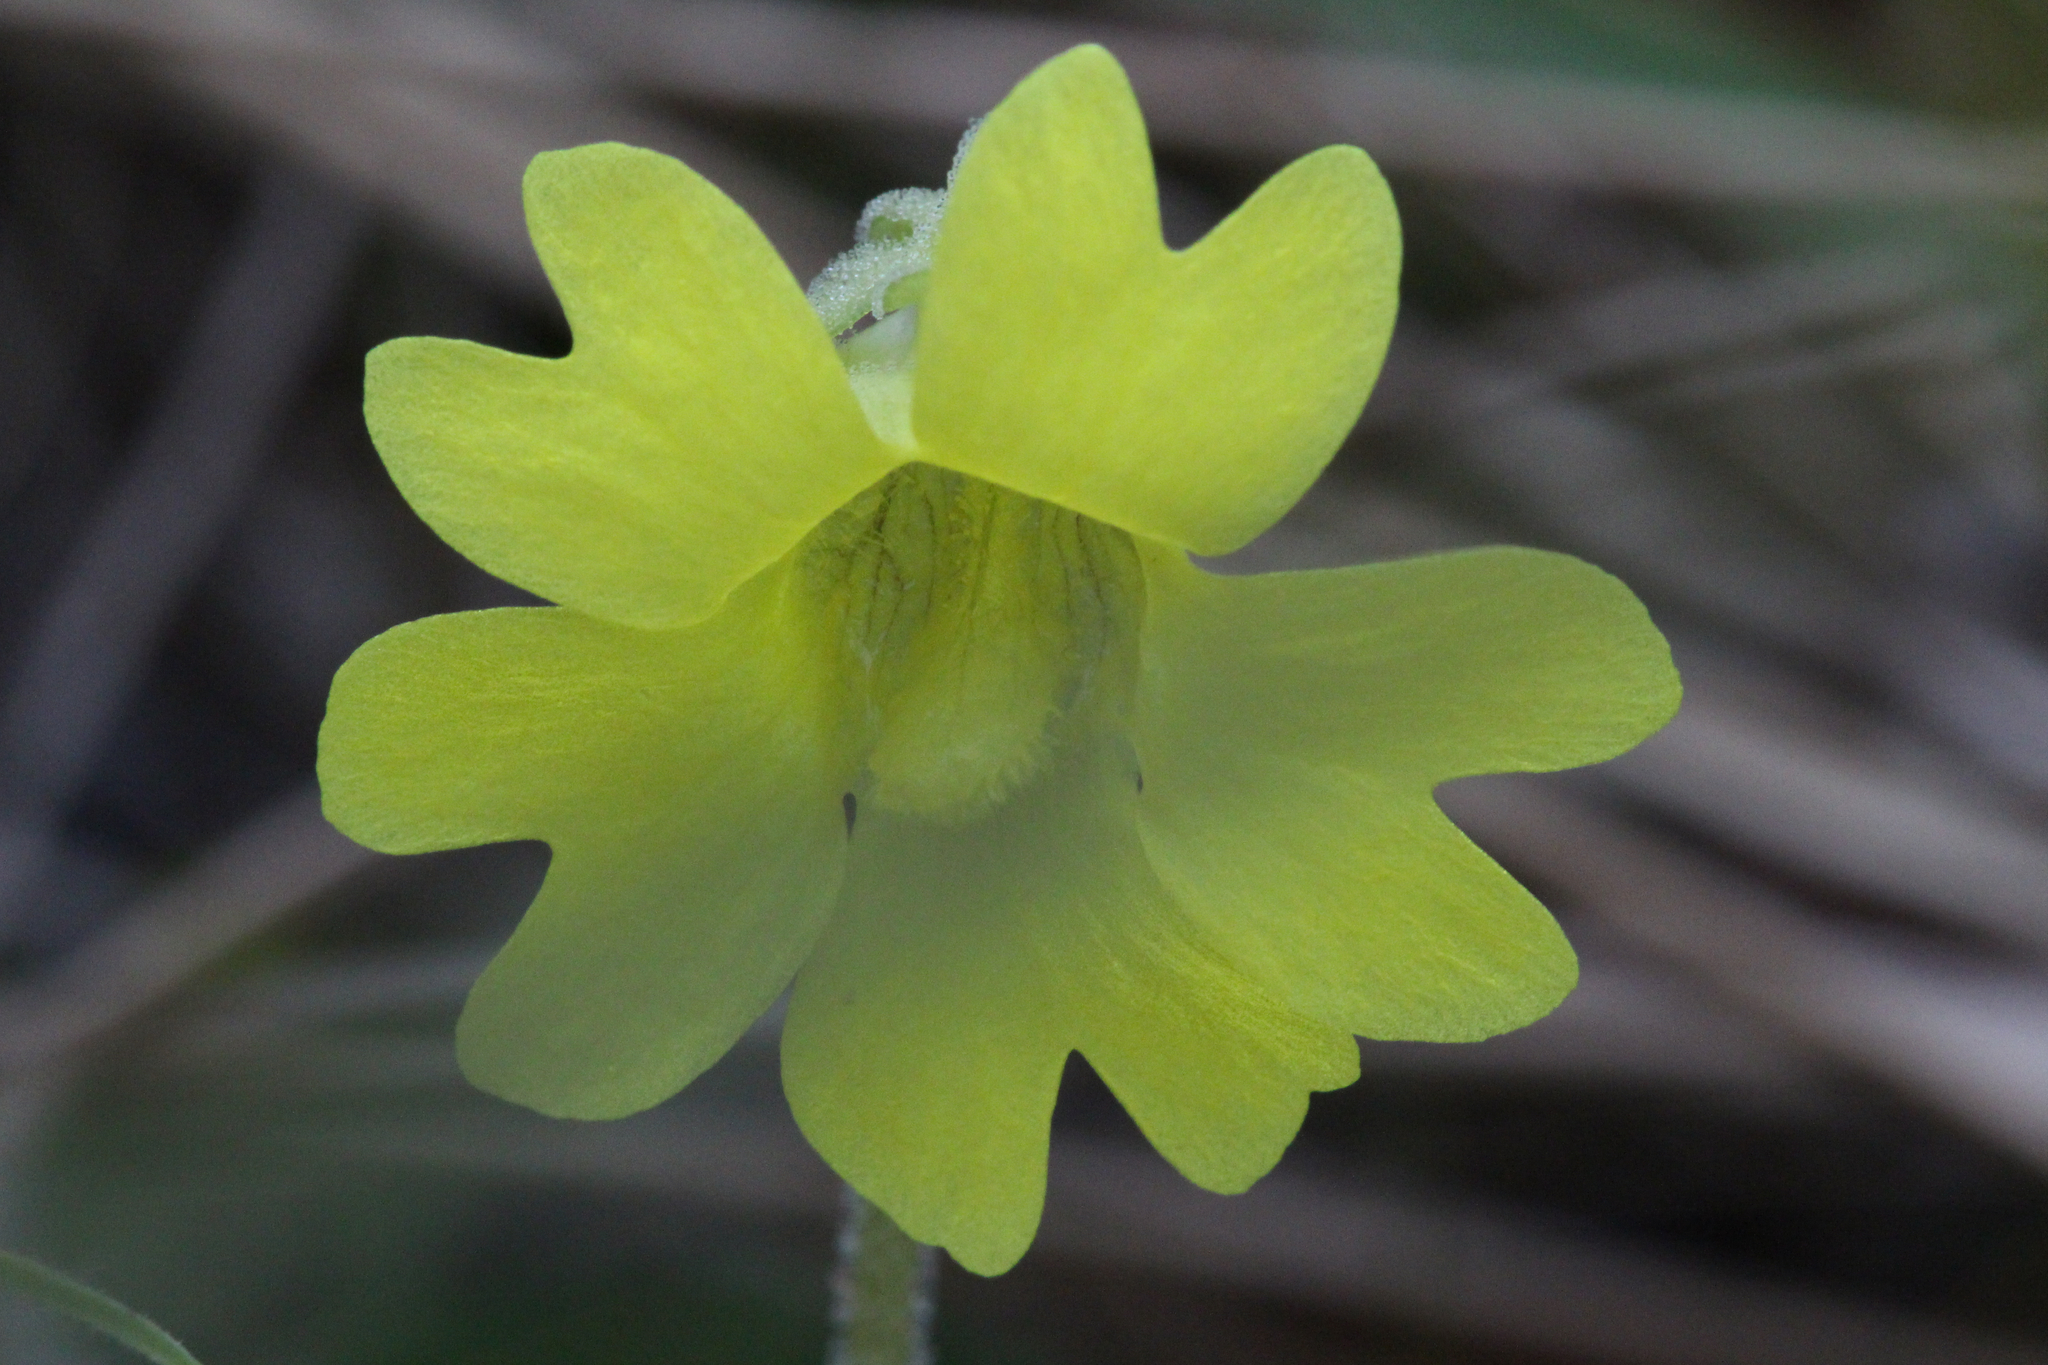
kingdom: Plantae
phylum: Tracheophyta
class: Magnoliopsida
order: Lamiales
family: Lentibulariaceae
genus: Pinguicula
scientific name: Pinguicula lutea
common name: Yellow butterwort
